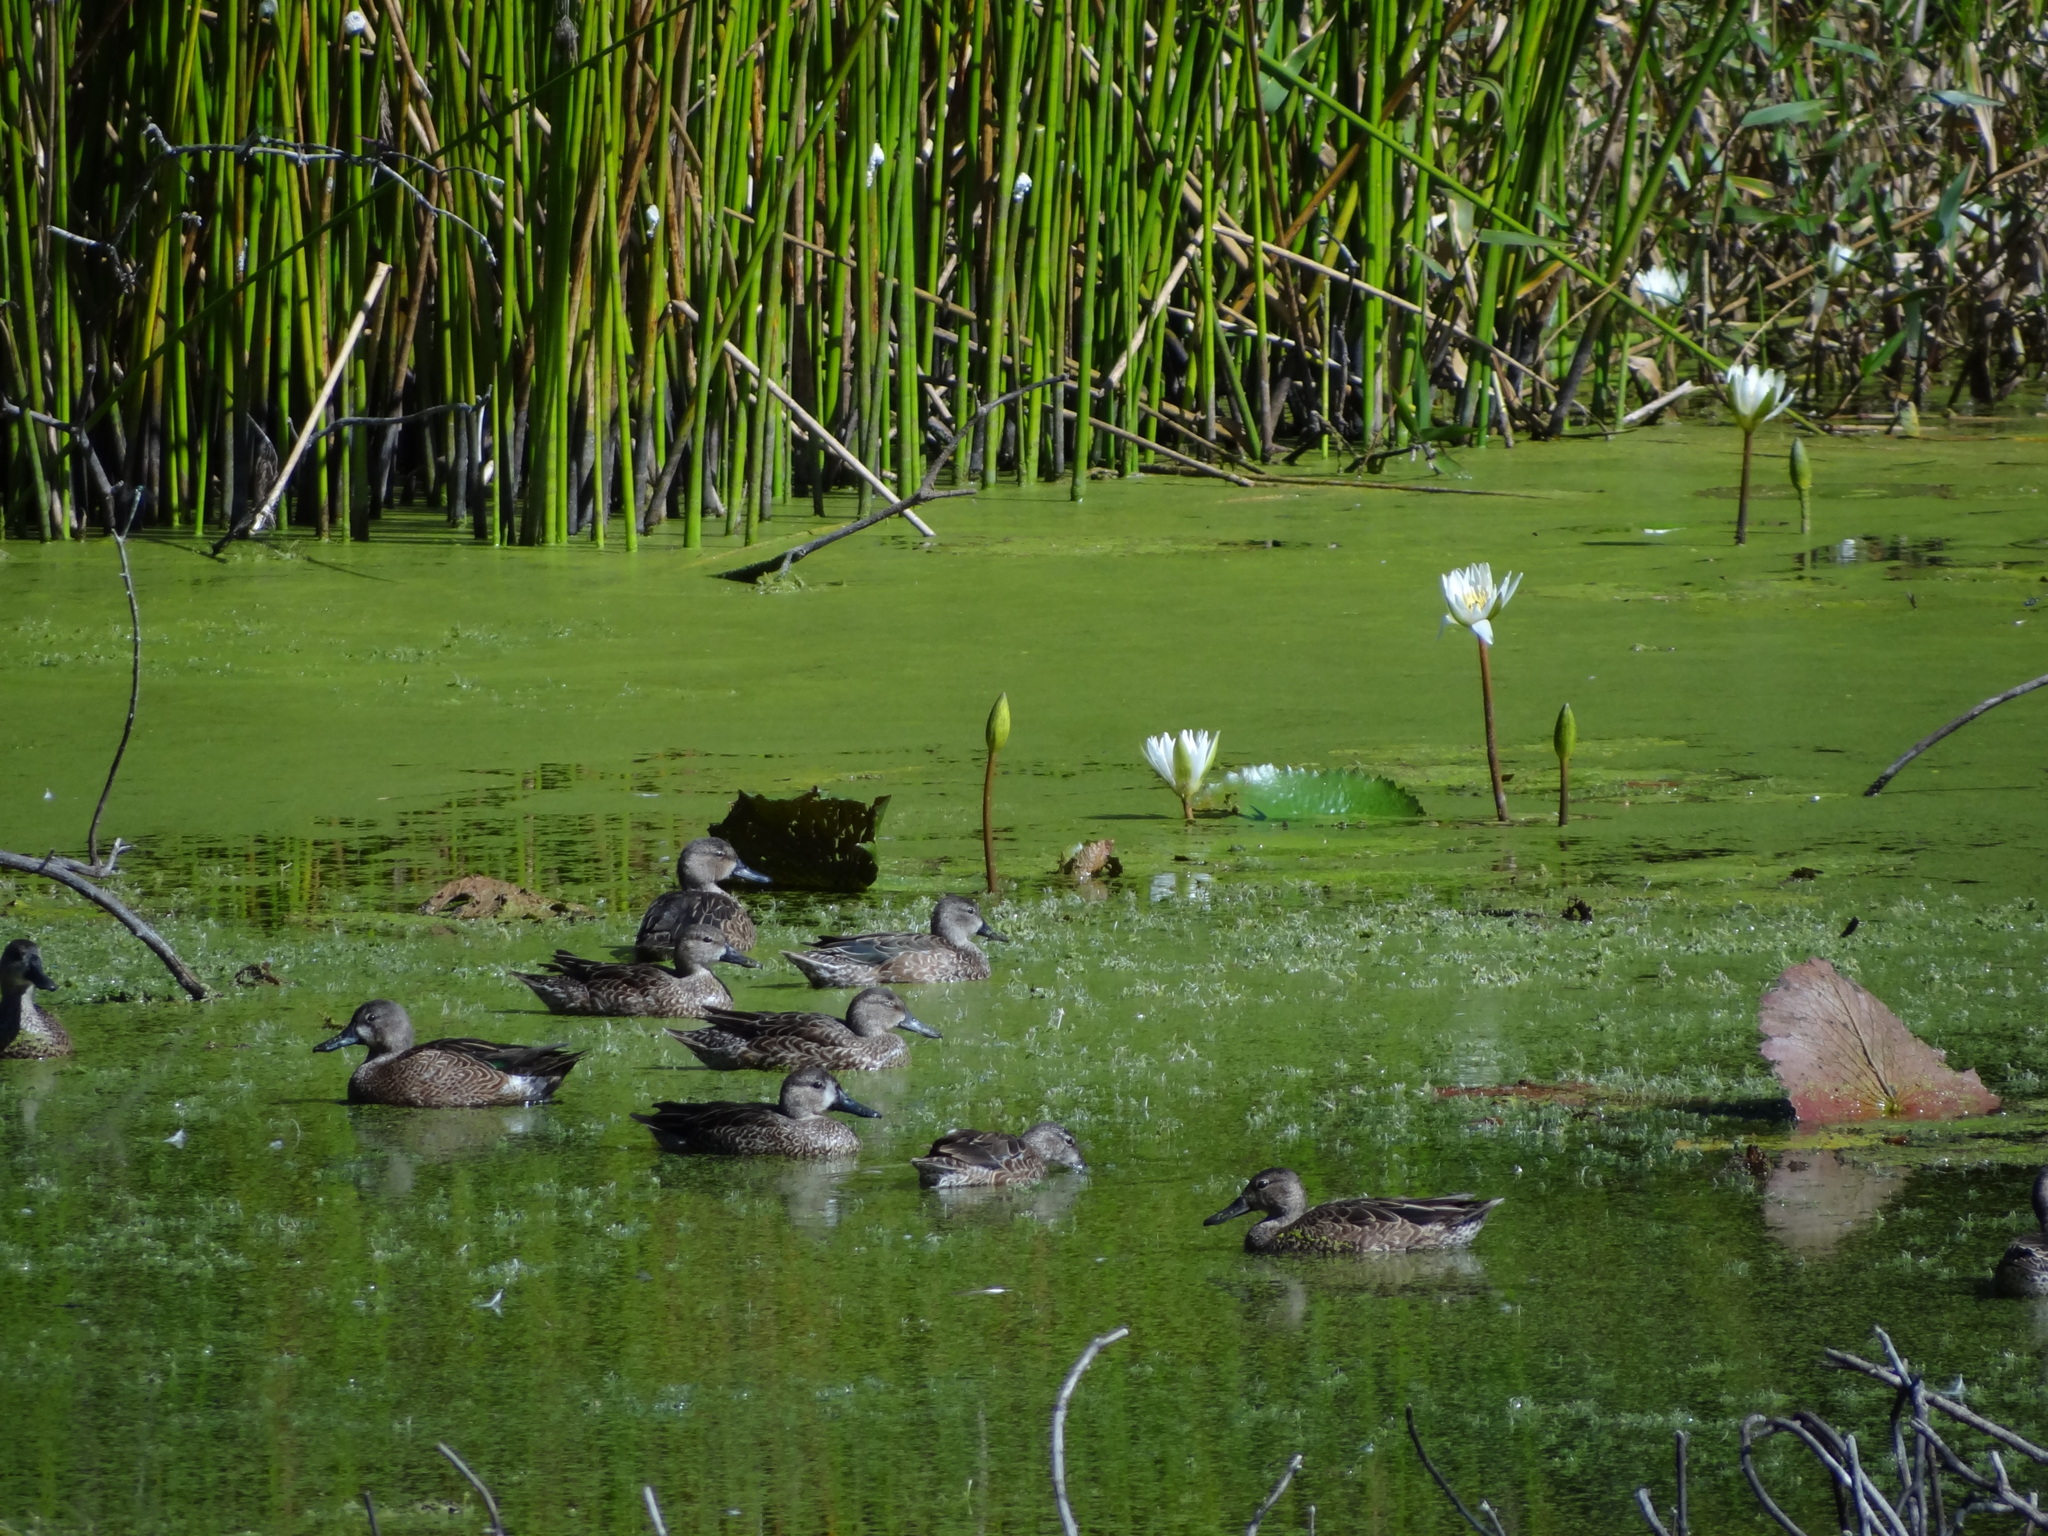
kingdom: Animalia
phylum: Chordata
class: Aves
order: Anseriformes
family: Anatidae
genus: Spatula
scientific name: Spatula discors
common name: Blue-winged teal
